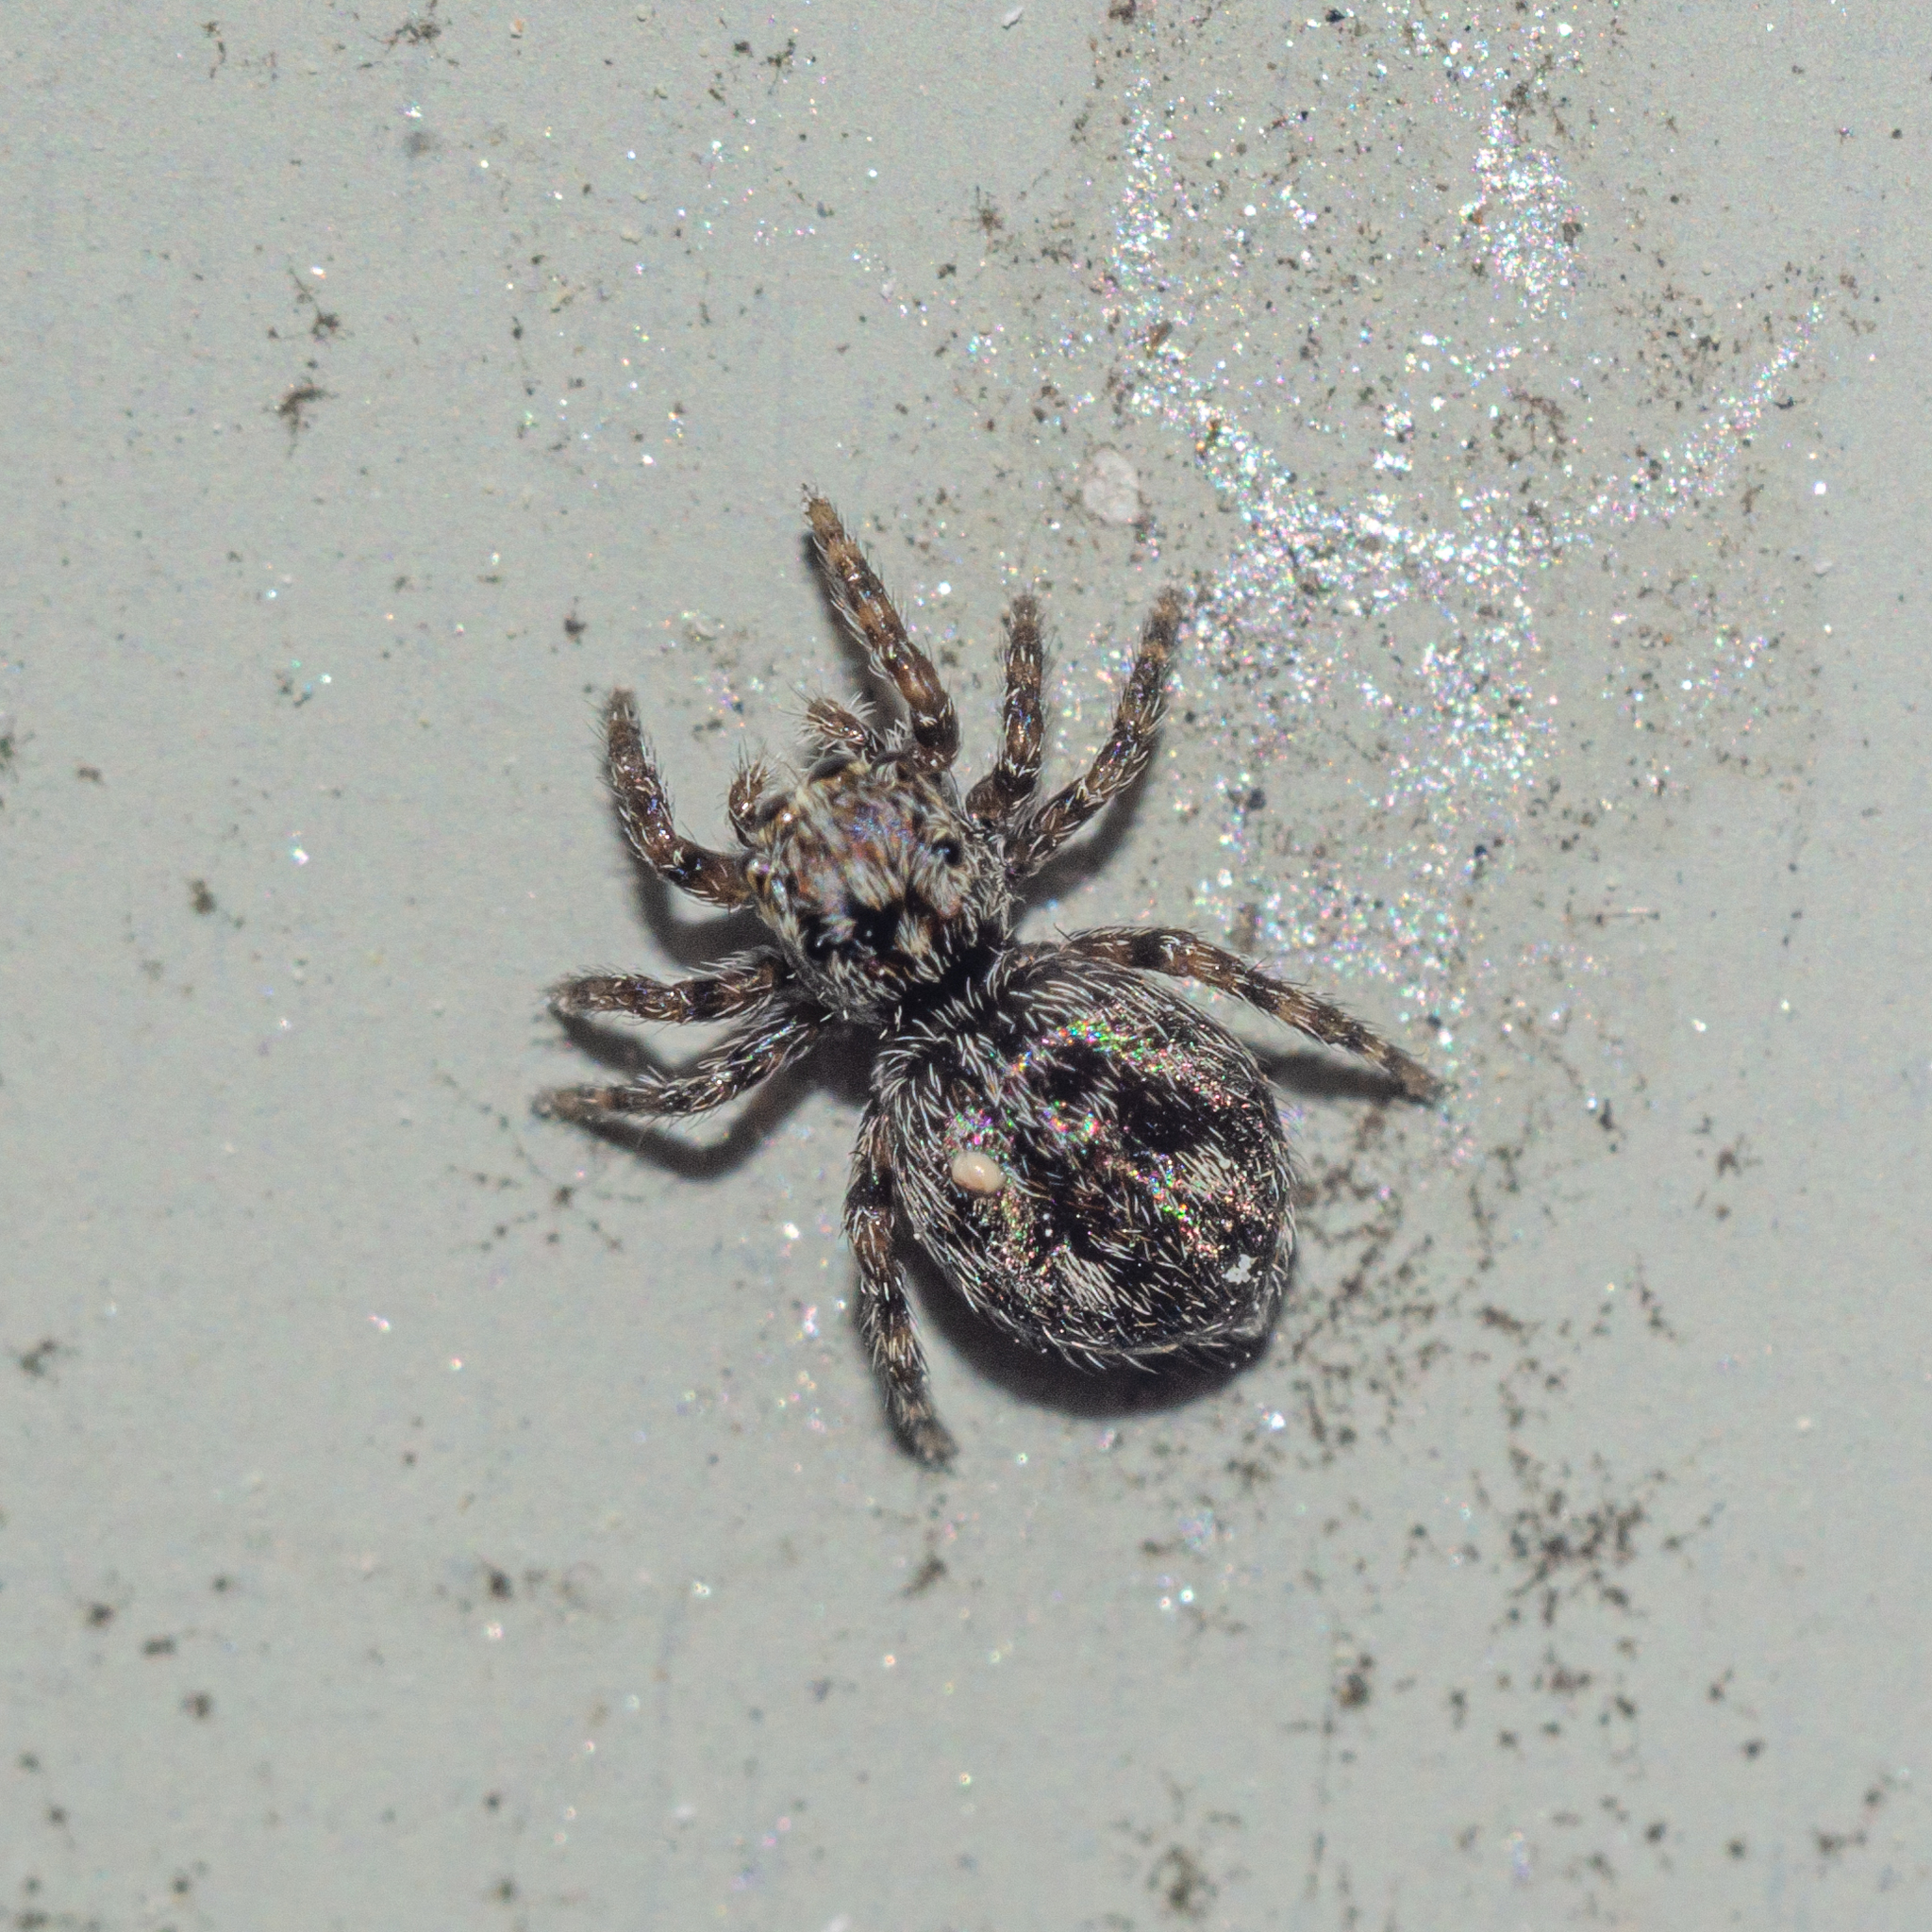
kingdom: Animalia
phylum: Arthropoda
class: Arachnida
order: Araneae
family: Salticidae
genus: Attulus
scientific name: Attulus pubescens
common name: Jumping spider
